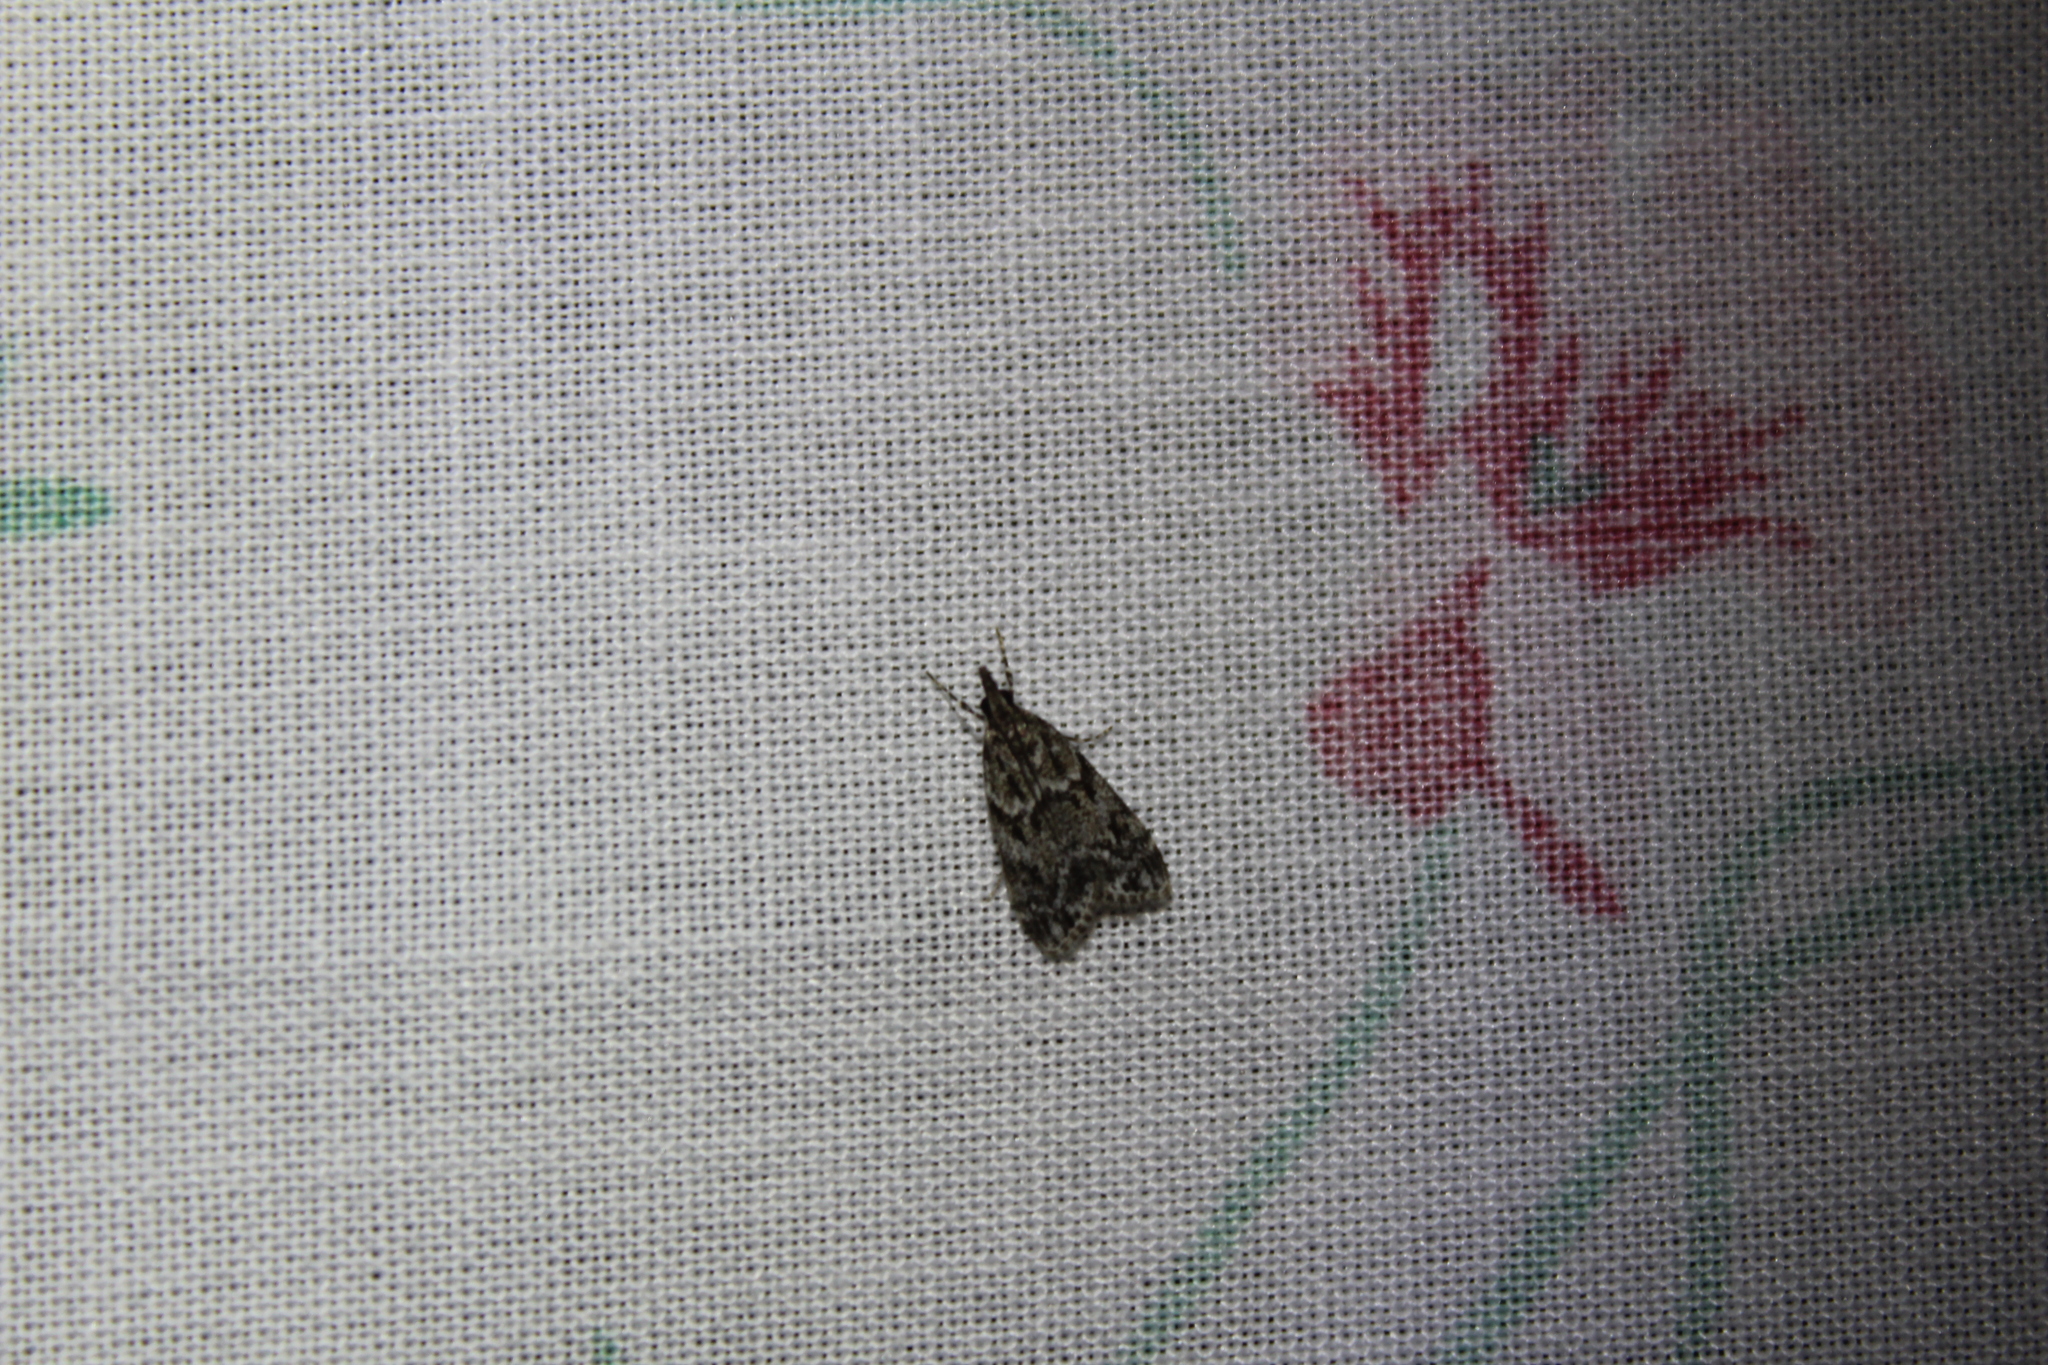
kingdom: Animalia
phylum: Arthropoda
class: Insecta
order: Lepidoptera
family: Crambidae
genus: Eudonia
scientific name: Eudonia heterosalis
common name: Mcdunnough's eudonia
